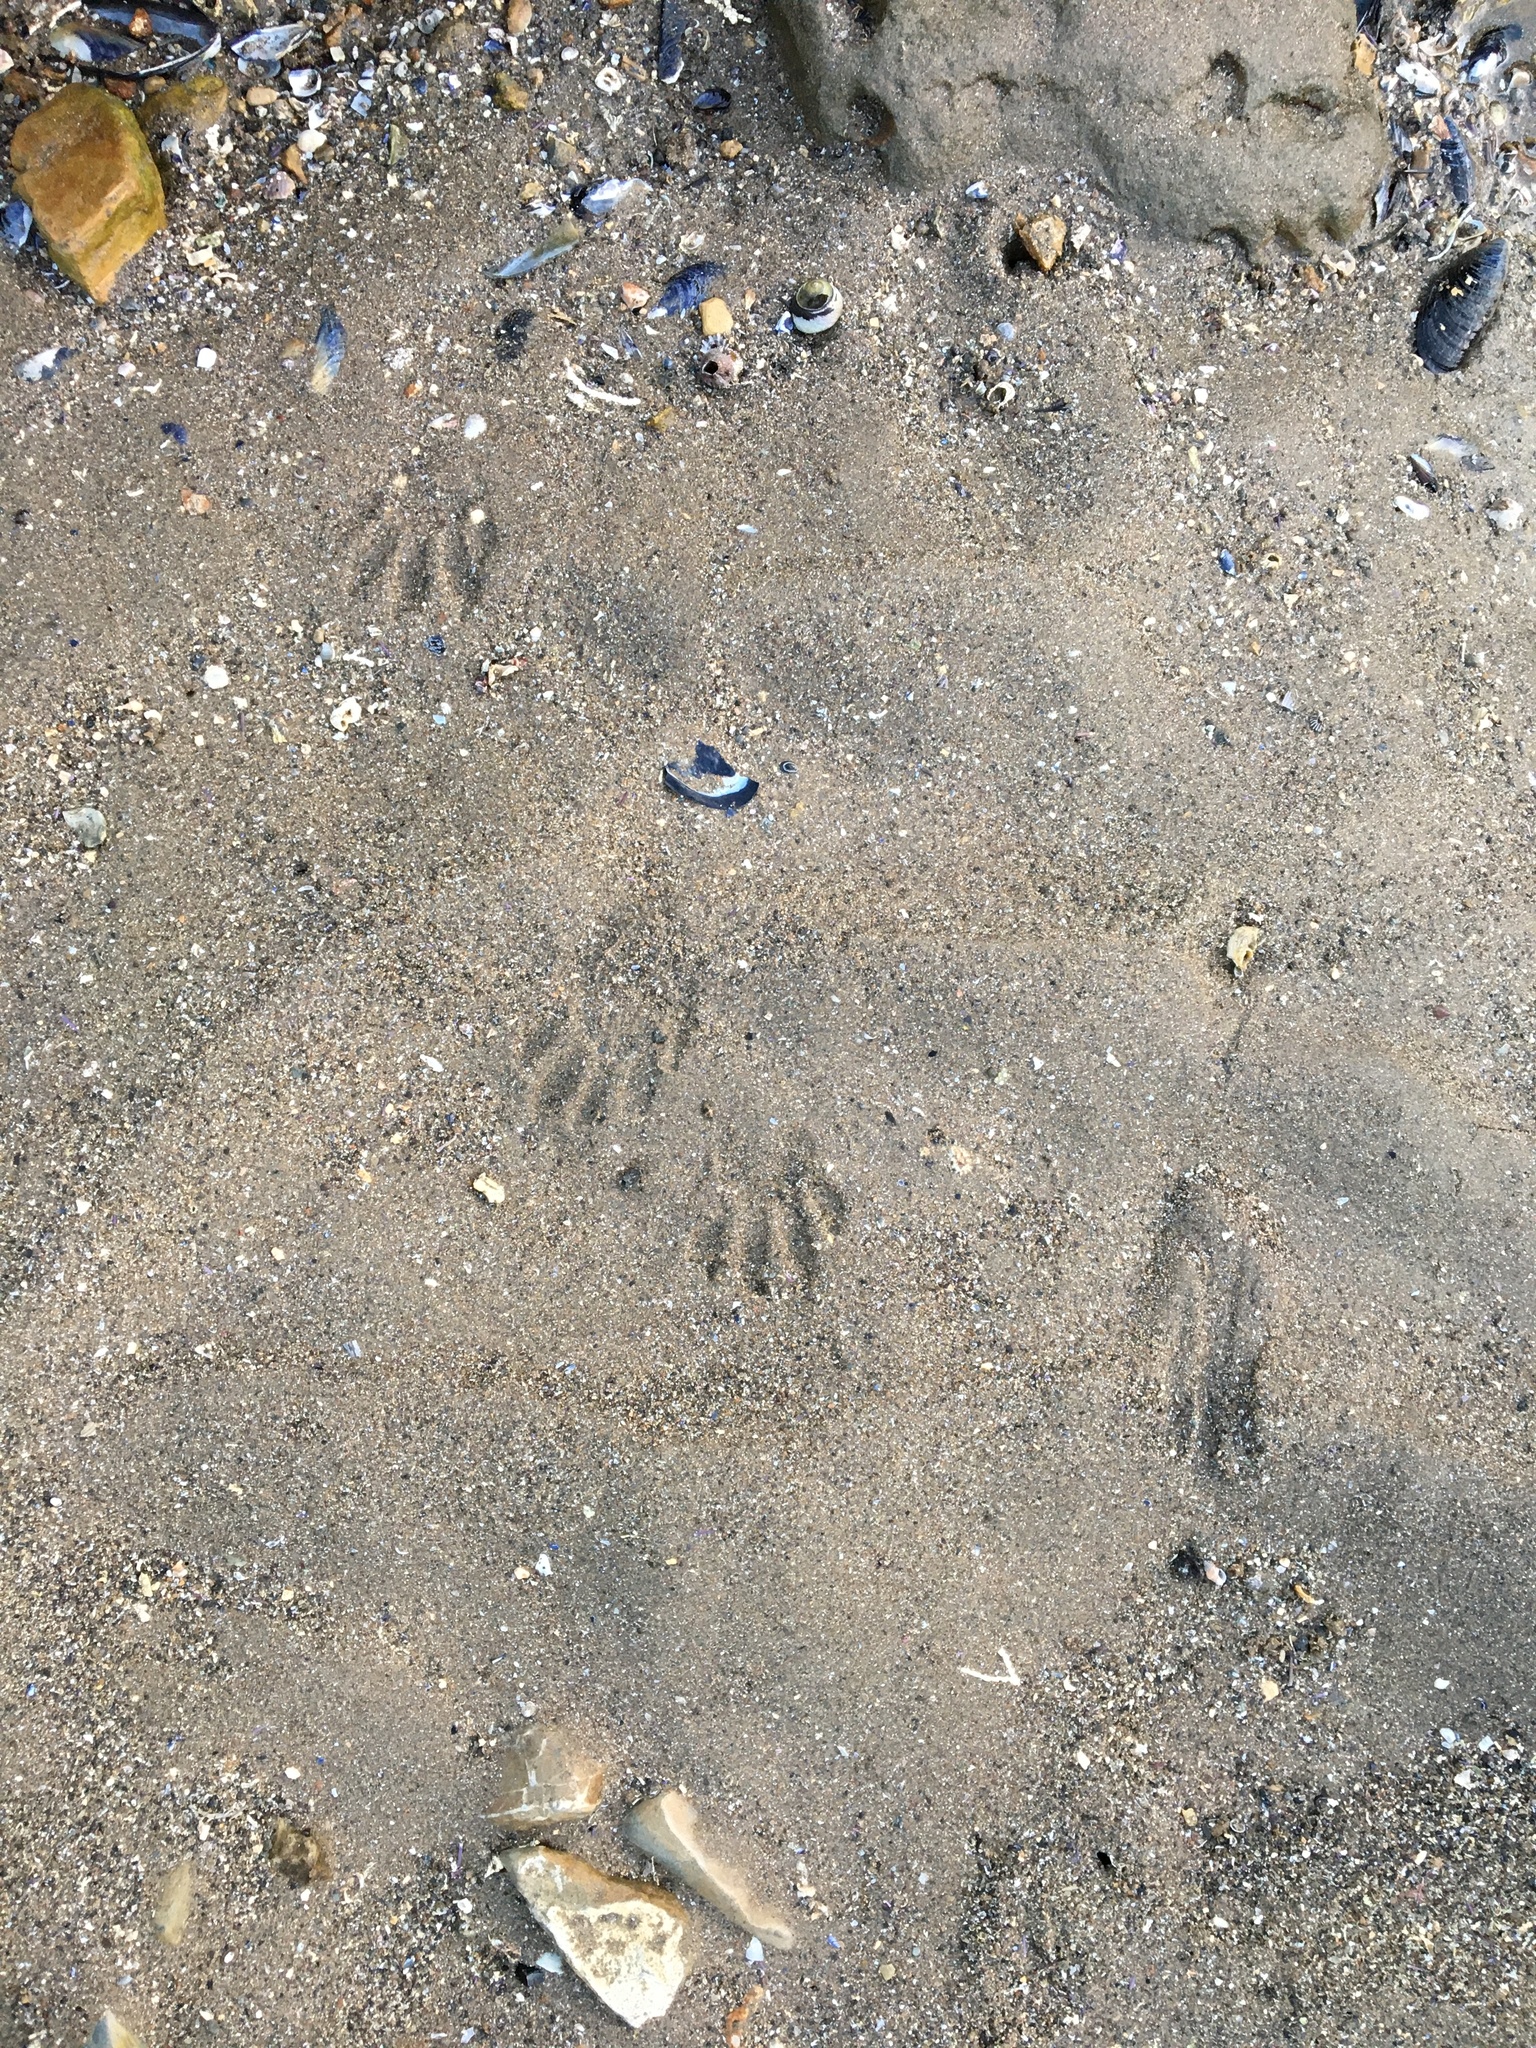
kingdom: Animalia
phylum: Chordata
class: Mammalia
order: Carnivora
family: Procyonidae
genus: Procyon
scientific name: Procyon lotor
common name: Raccoon
